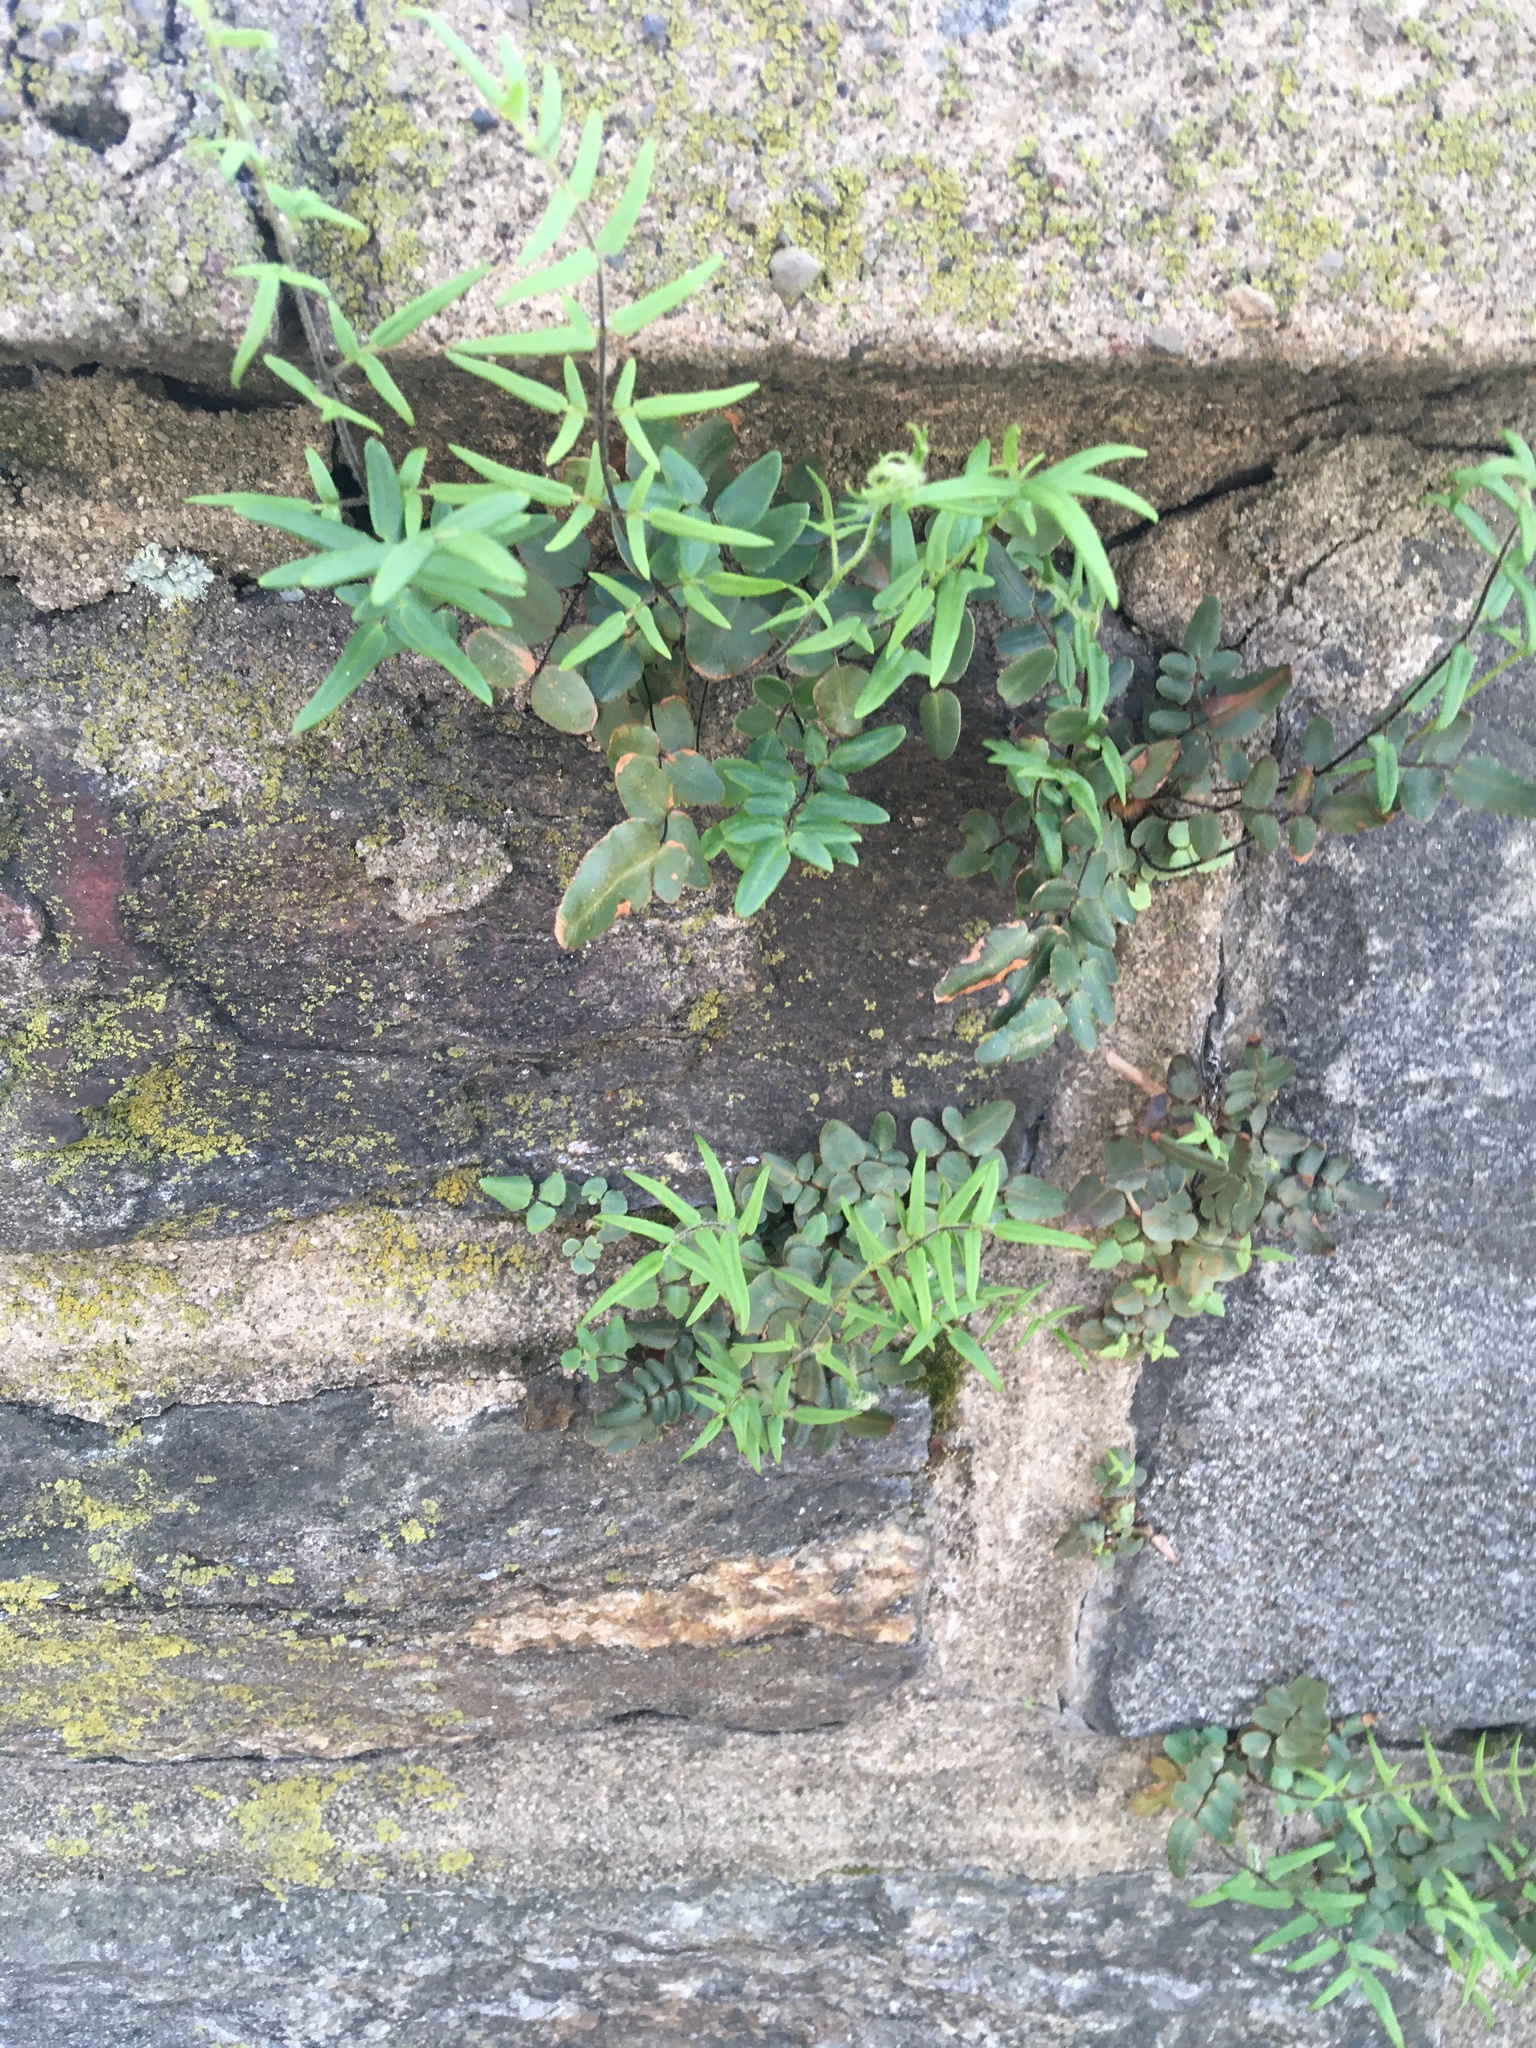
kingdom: Plantae
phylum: Tracheophyta
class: Polypodiopsida
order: Polypodiales
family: Pteridaceae
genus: Pellaea
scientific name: Pellaea atropurpurea
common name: Hairy cliffbrake
